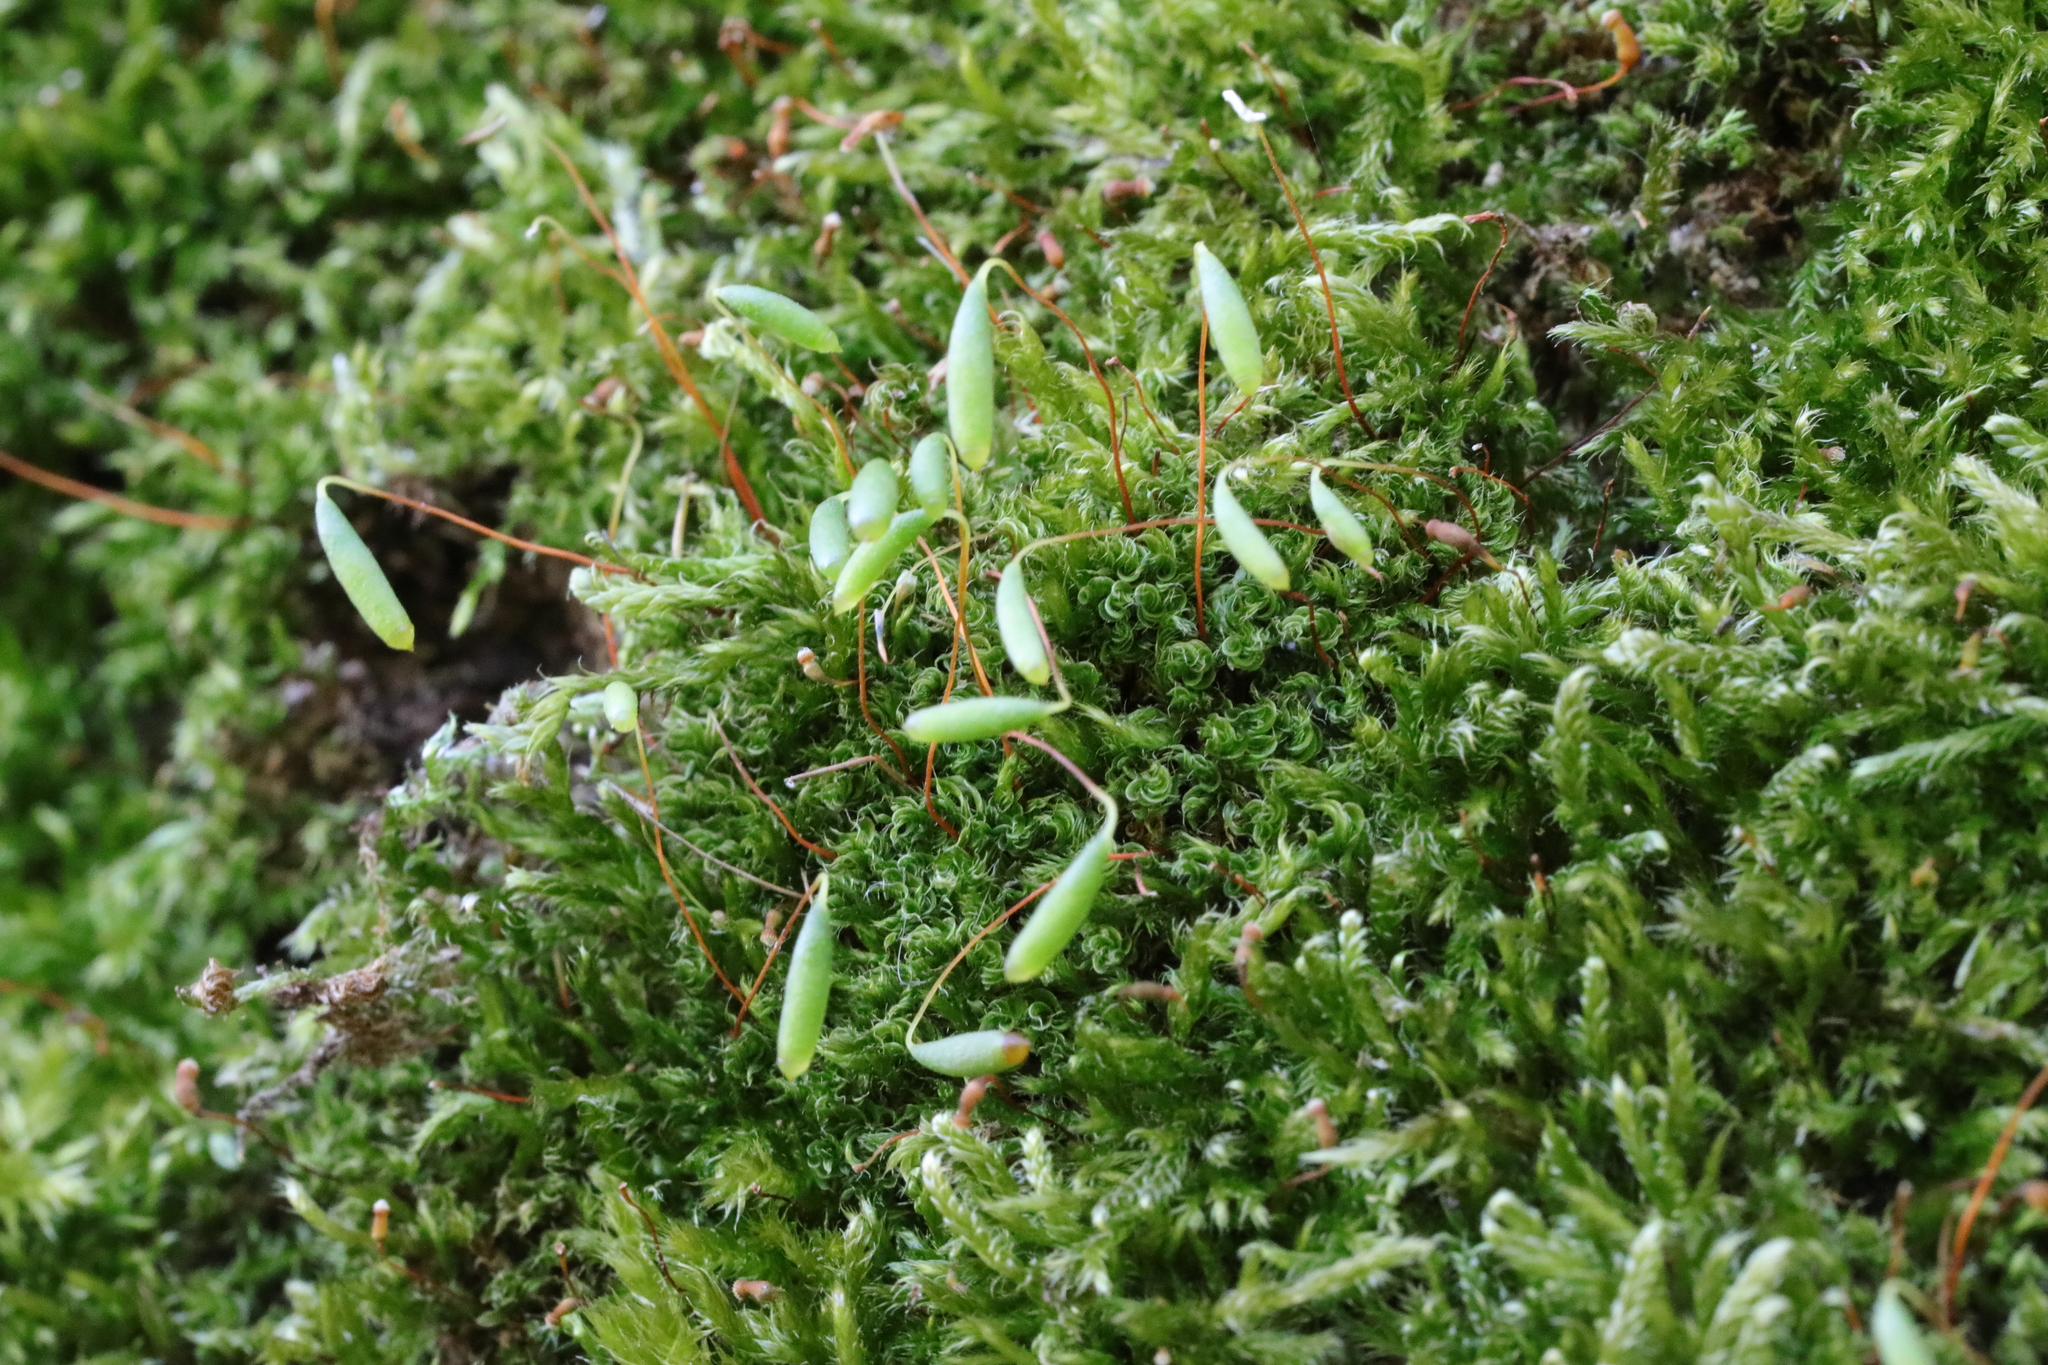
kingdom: Plantae
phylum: Bryophyta
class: Bryopsida
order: Bryales
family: Bryaceae
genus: Rosulabryum
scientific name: Rosulabryum capillare
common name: Capillary thread-moss
